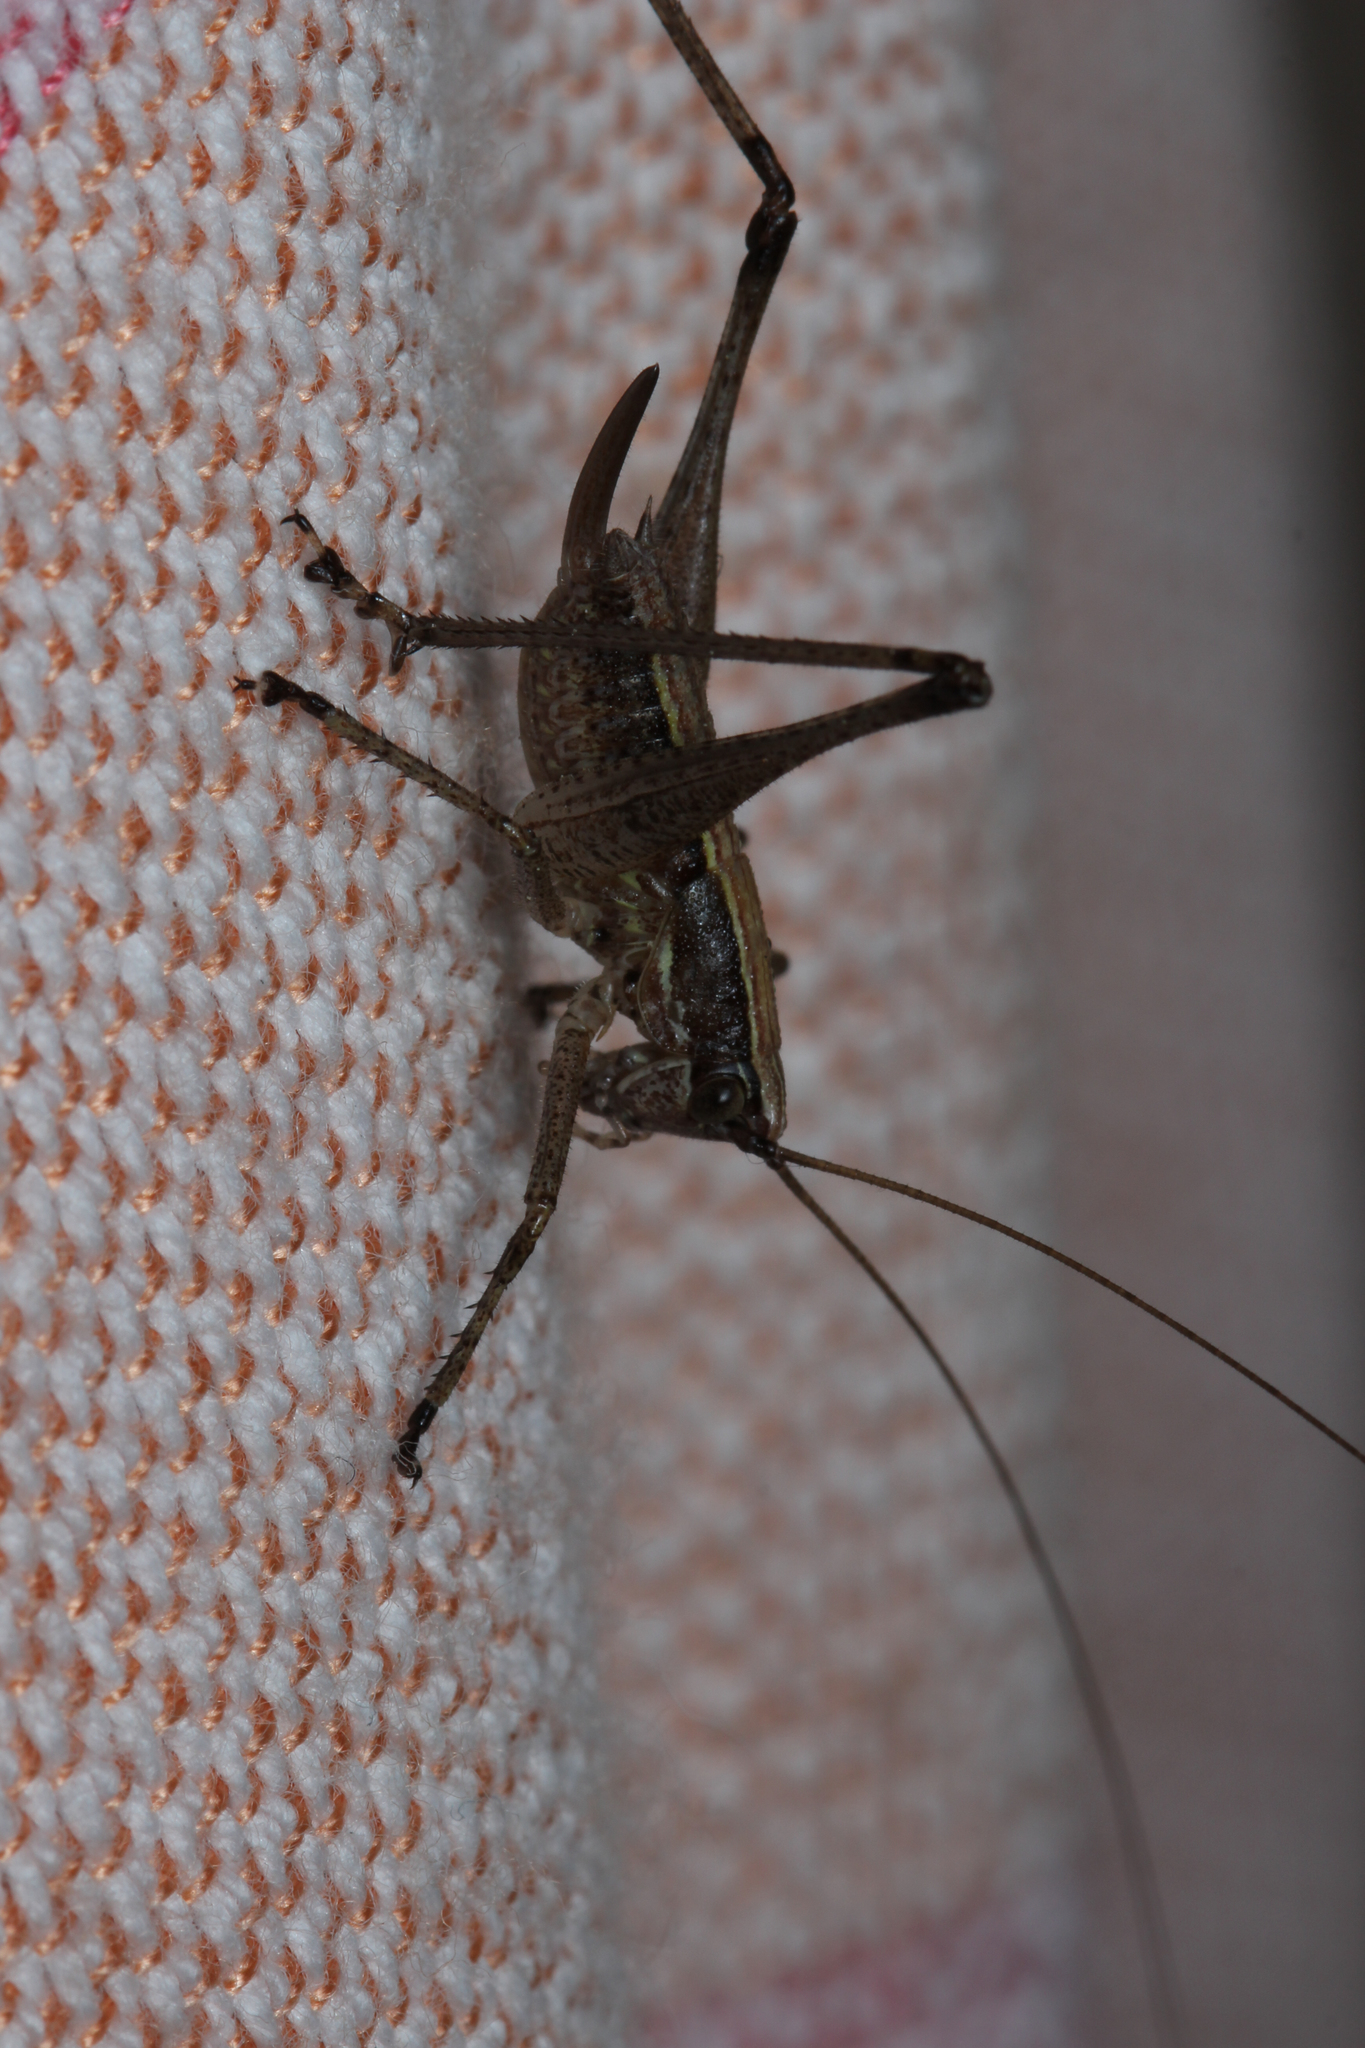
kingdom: Animalia
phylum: Arthropoda
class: Insecta
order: Orthoptera
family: Tettigoniidae
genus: Yersinella
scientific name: Yersinella raymondii
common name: Raymond's bush-cricket
